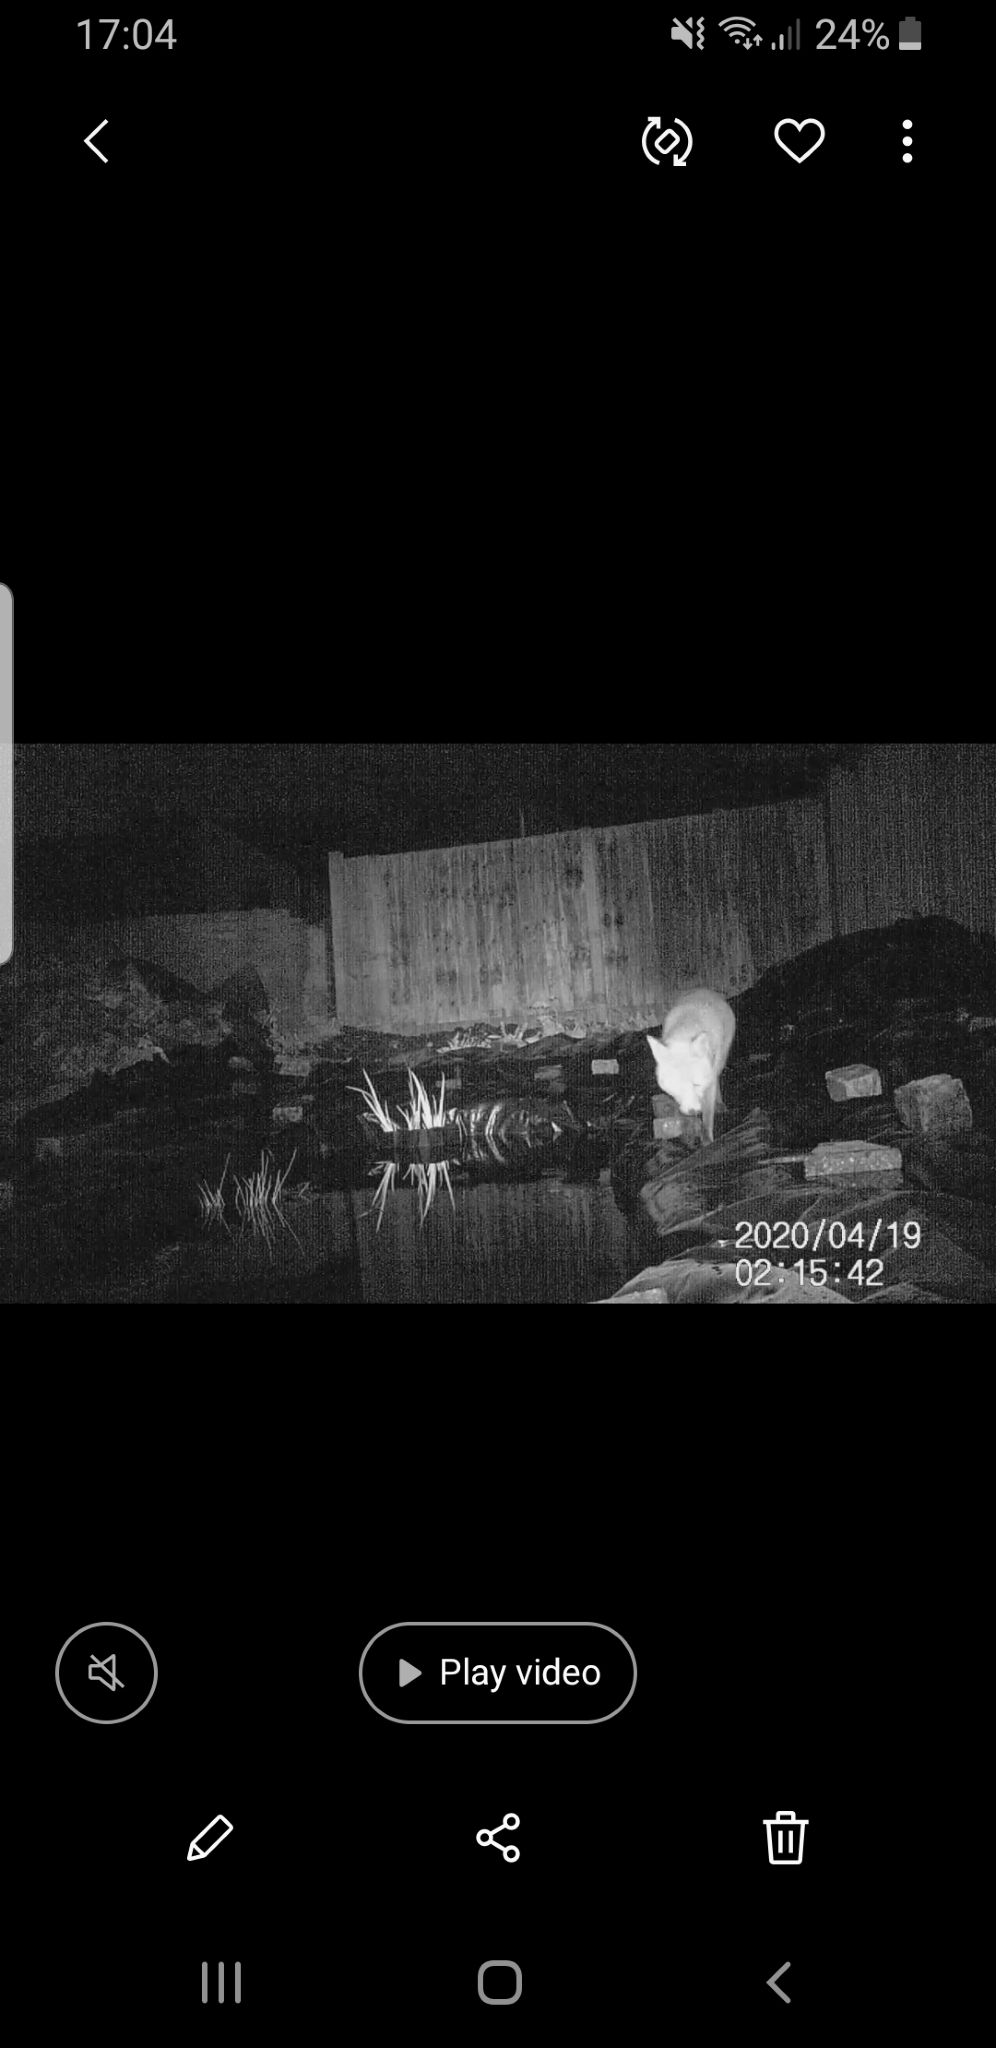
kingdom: Animalia
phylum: Chordata
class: Mammalia
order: Carnivora
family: Canidae
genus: Vulpes
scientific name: Vulpes vulpes
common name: Red fox
